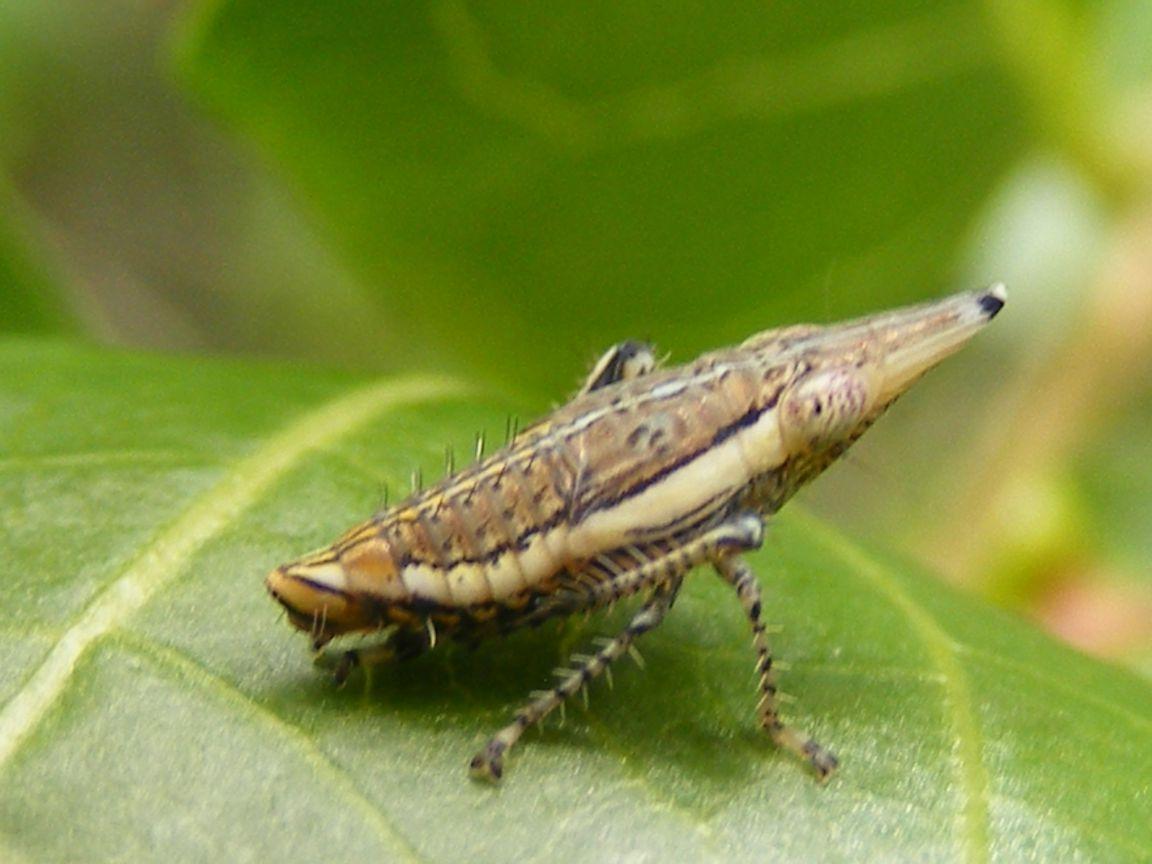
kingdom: Animalia
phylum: Arthropoda
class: Insecta
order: Hemiptera
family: Cicadellidae
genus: Nelrivia
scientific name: Nelrivia lawrenci
